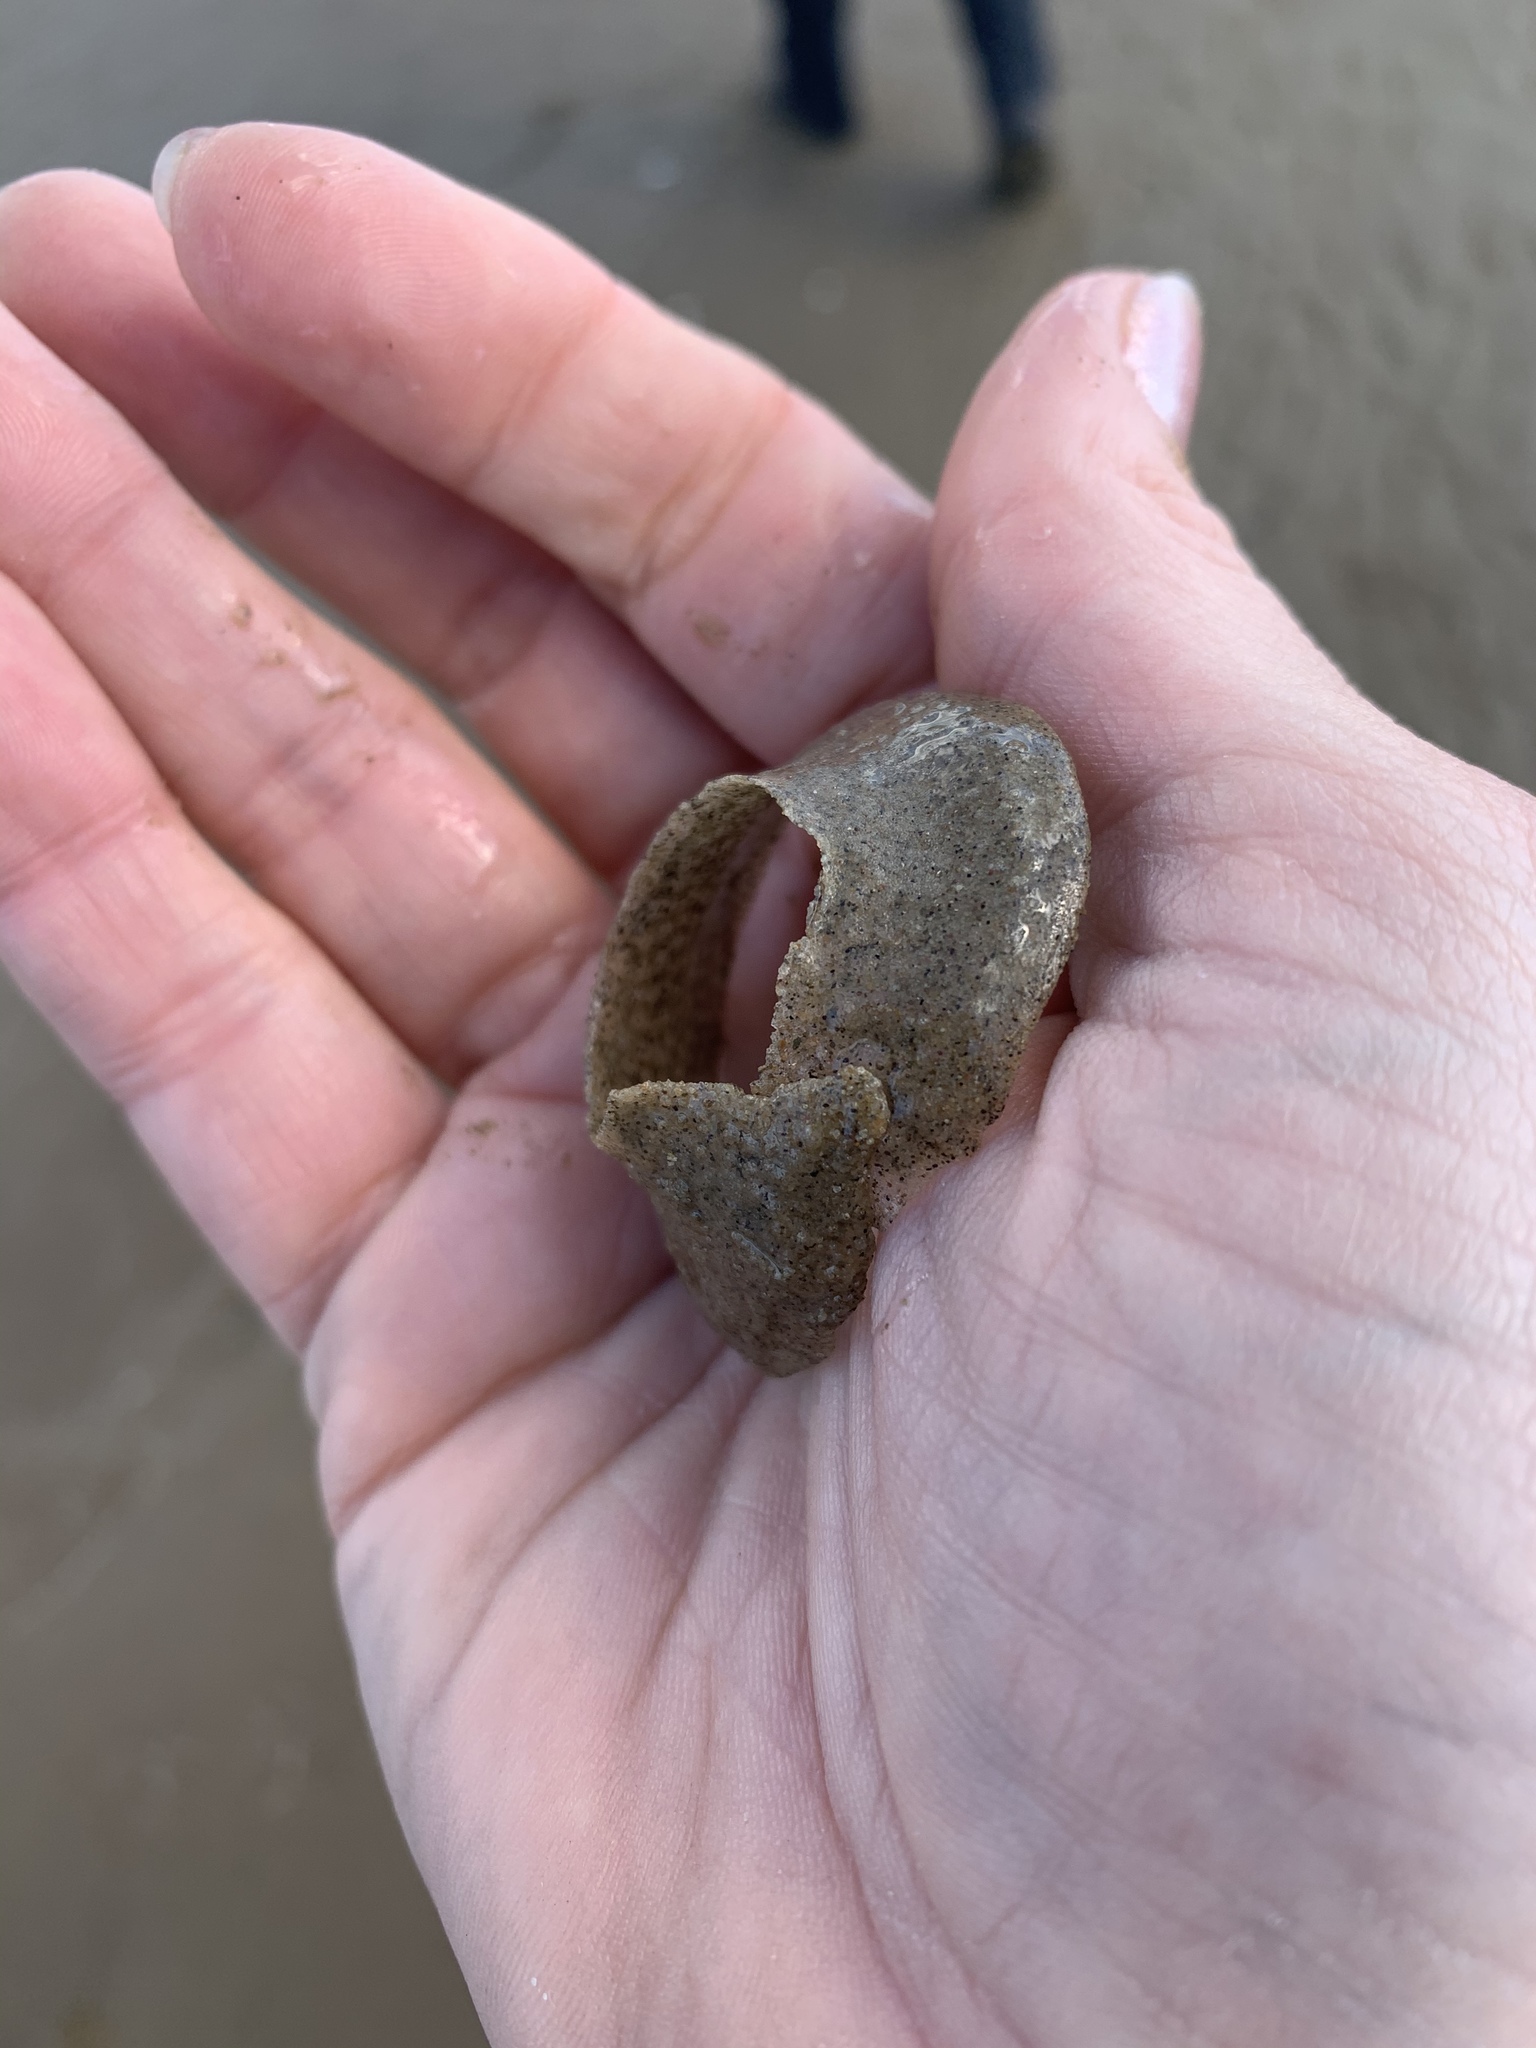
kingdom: Animalia
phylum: Mollusca
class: Gastropoda
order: Littorinimorpha
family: Naticidae
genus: Euspira
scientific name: Euspira heros
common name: Common northern moonsnail
